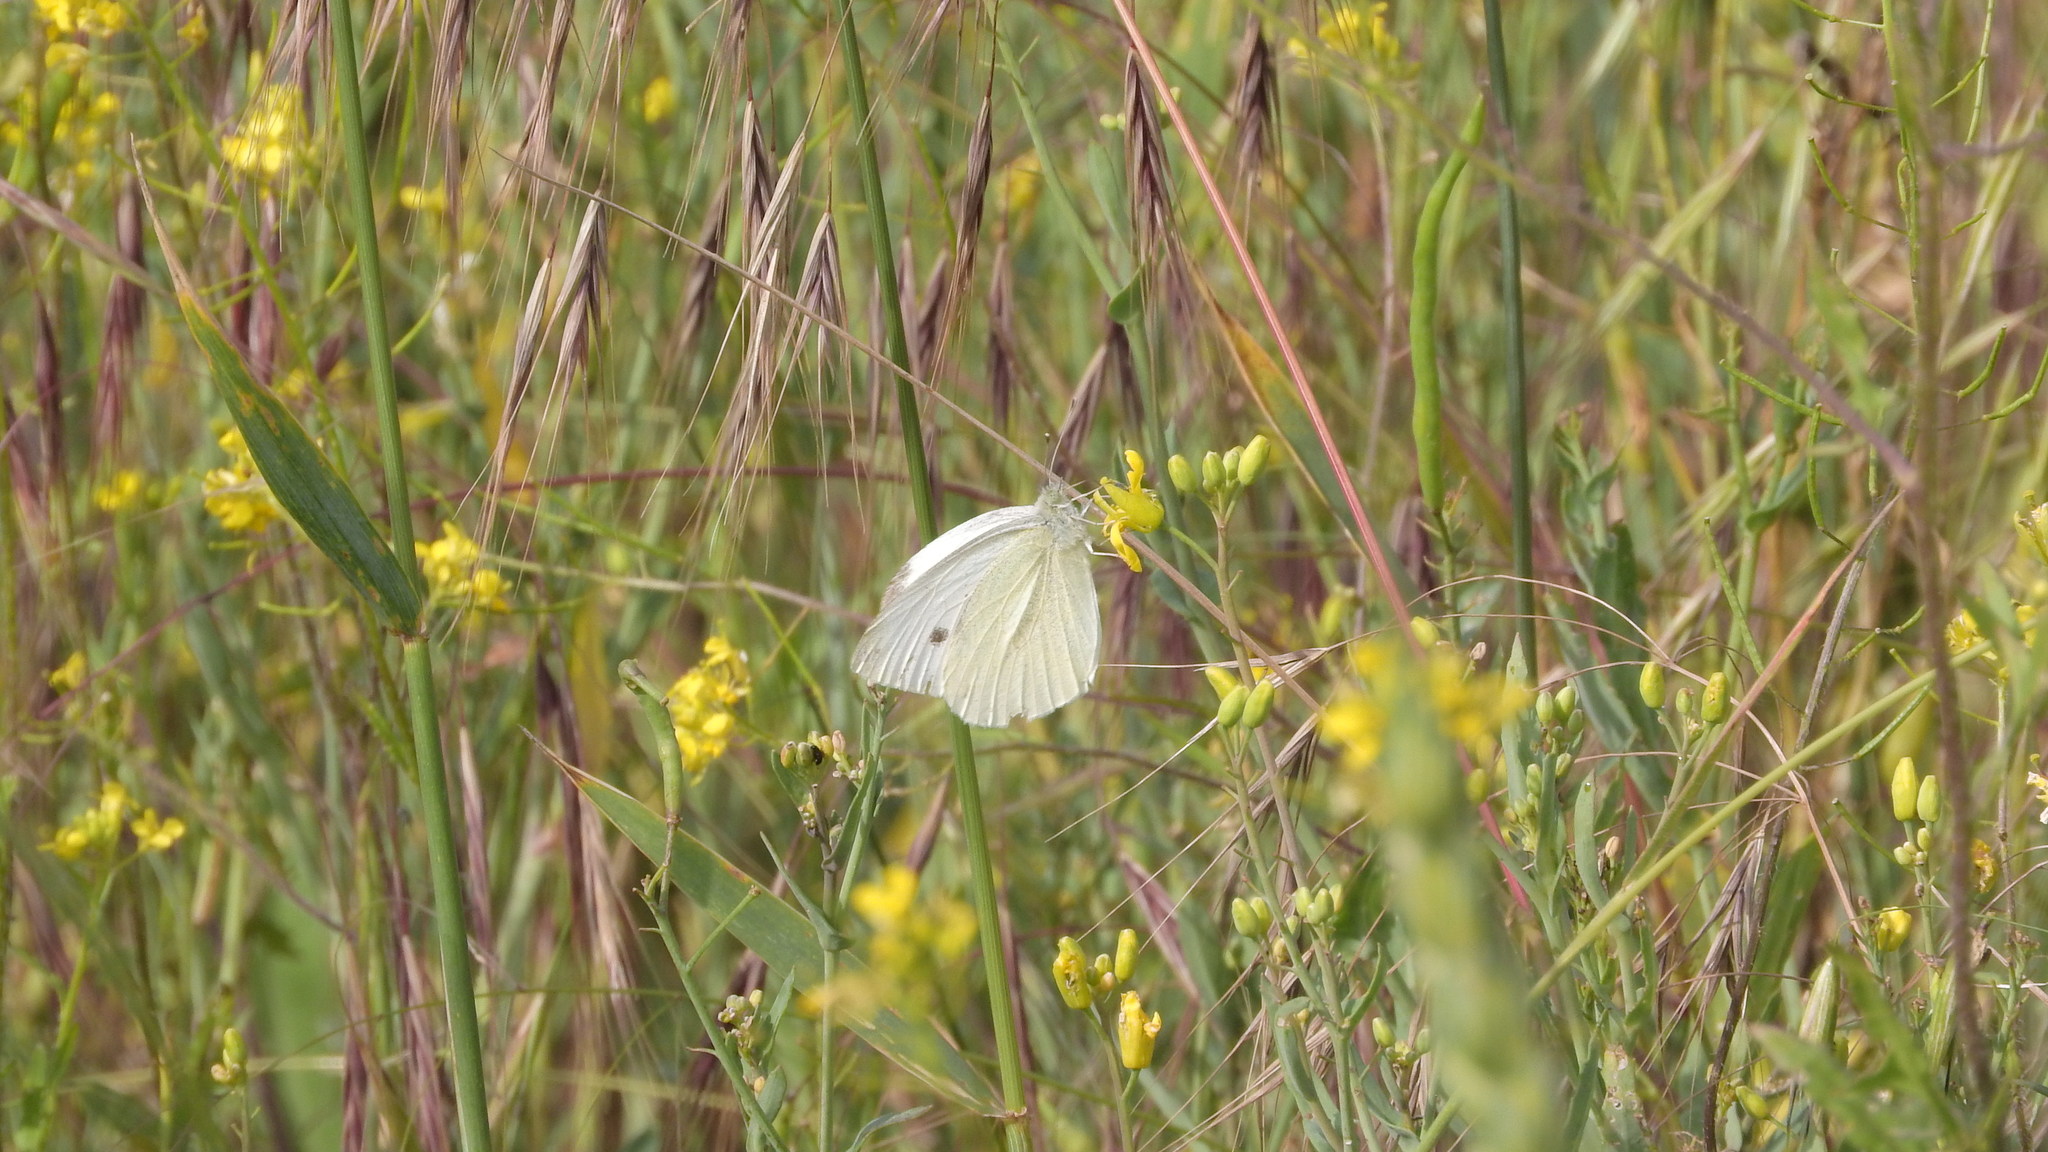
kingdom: Animalia
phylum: Arthropoda
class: Insecta
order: Lepidoptera
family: Pieridae
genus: Pieris
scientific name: Pieris rapae
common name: Small white
